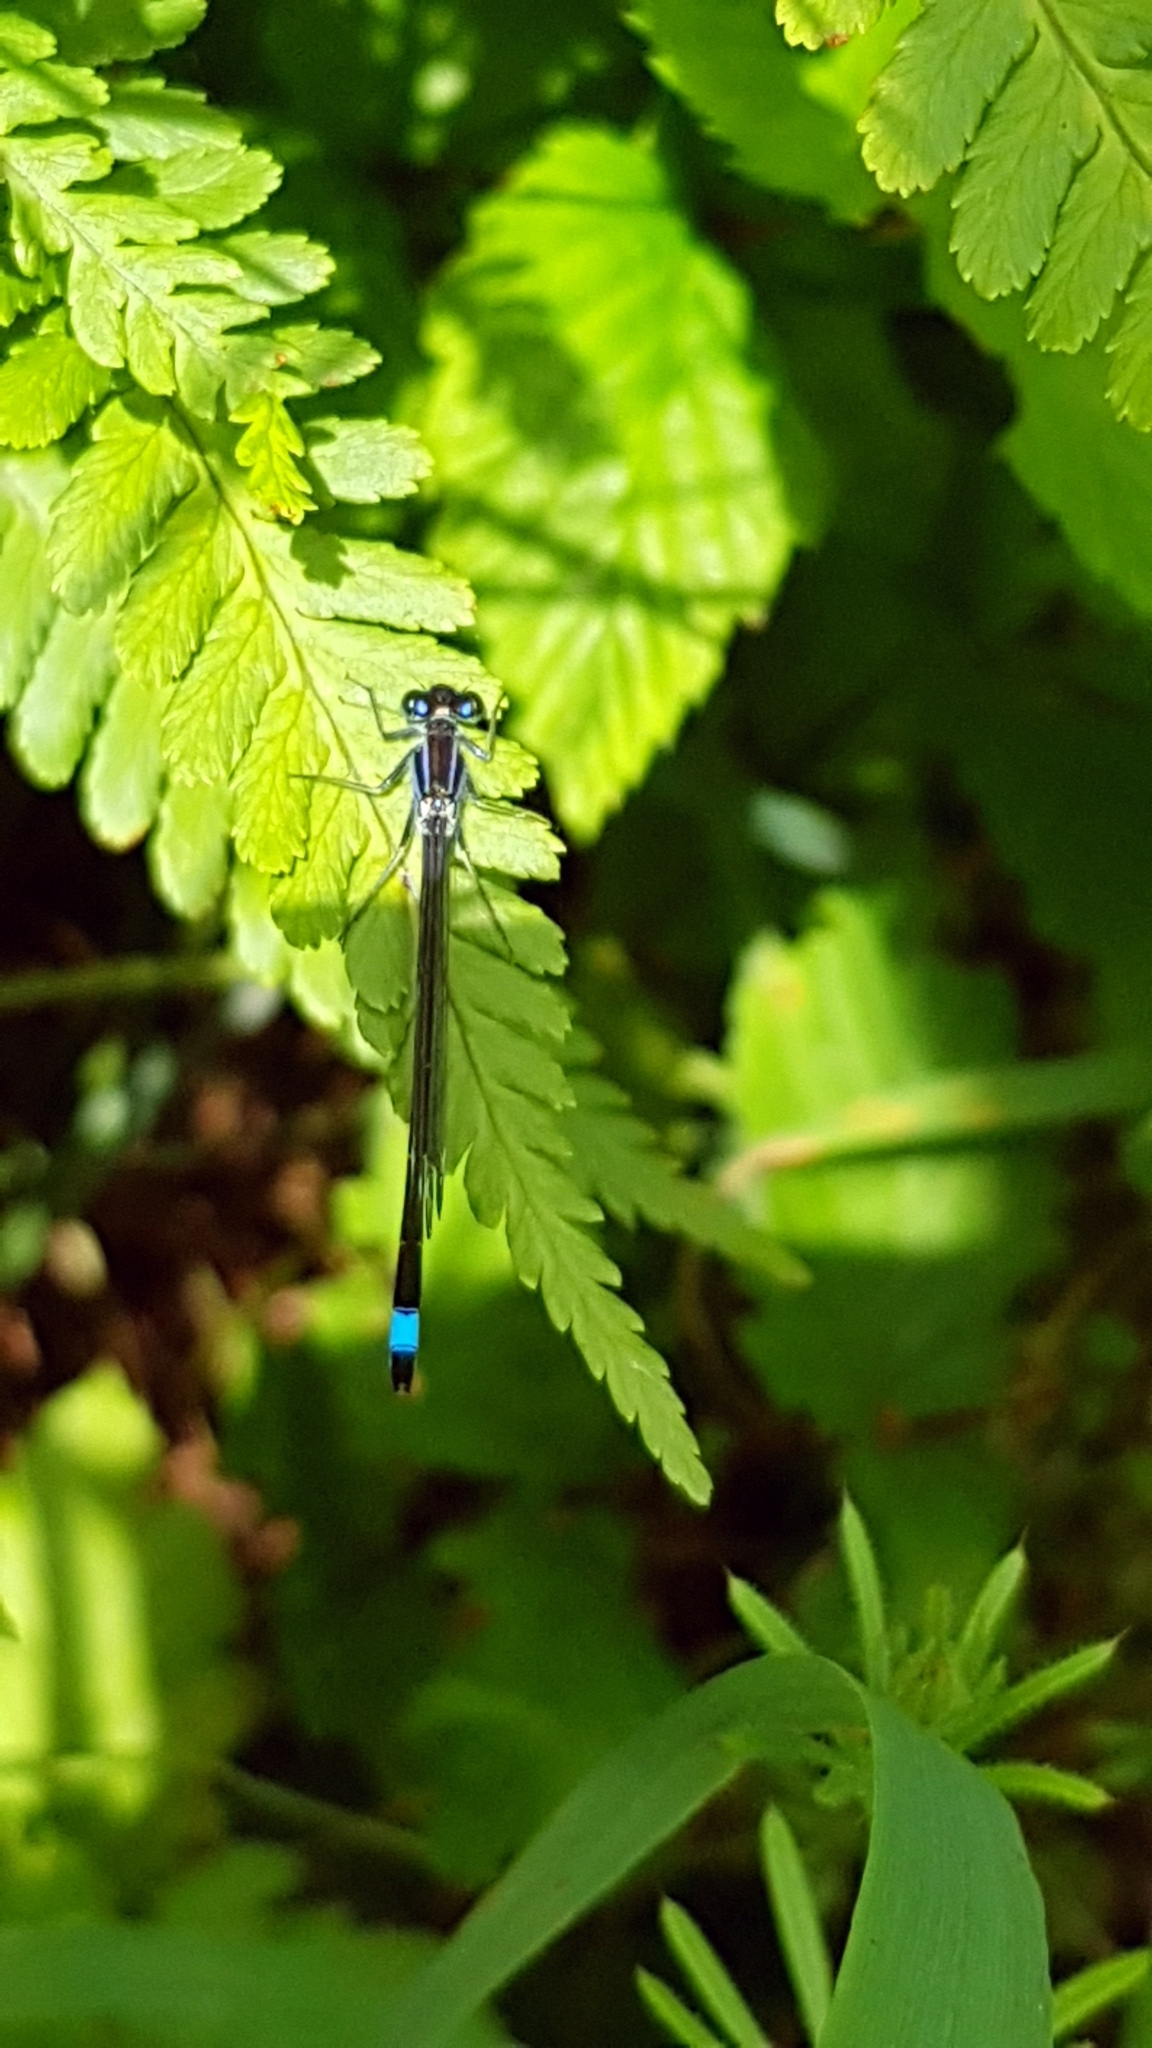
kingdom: Animalia
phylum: Arthropoda
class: Insecta
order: Odonata
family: Coenagrionidae
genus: Ischnura
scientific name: Ischnura elegans
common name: Blue-tailed damselfly
